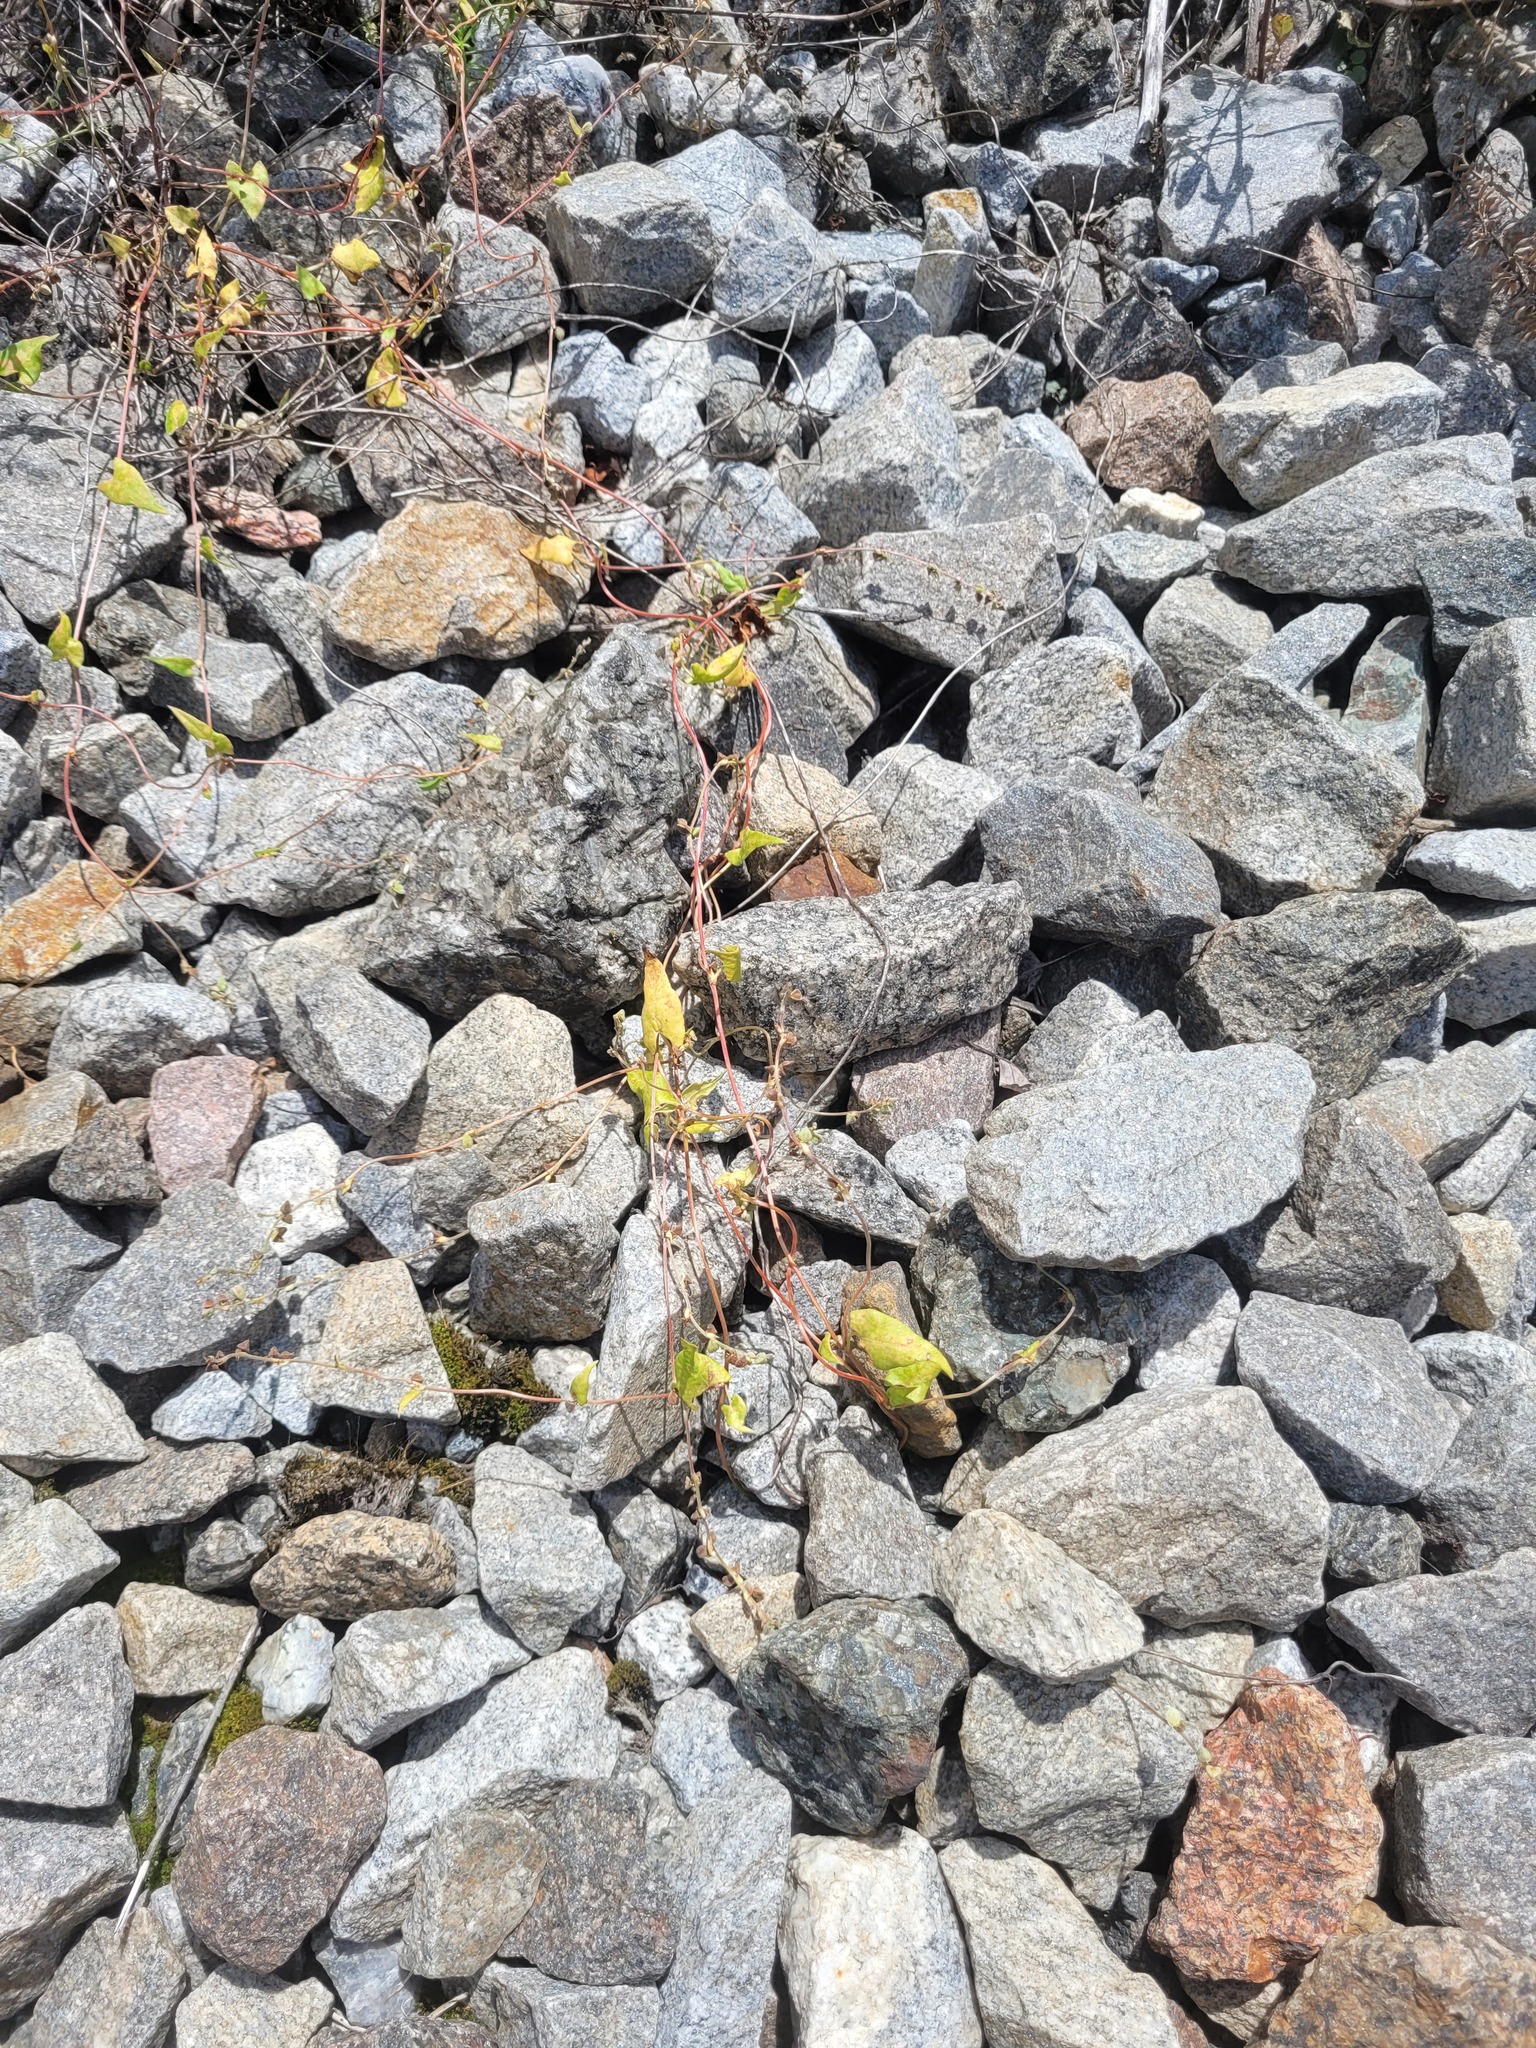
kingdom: Plantae
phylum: Tracheophyta
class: Magnoliopsida
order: Caryophyllales
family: Polygonaceae
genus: Fallopia
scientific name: Fallopia convolvulus
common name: Black bindweed
